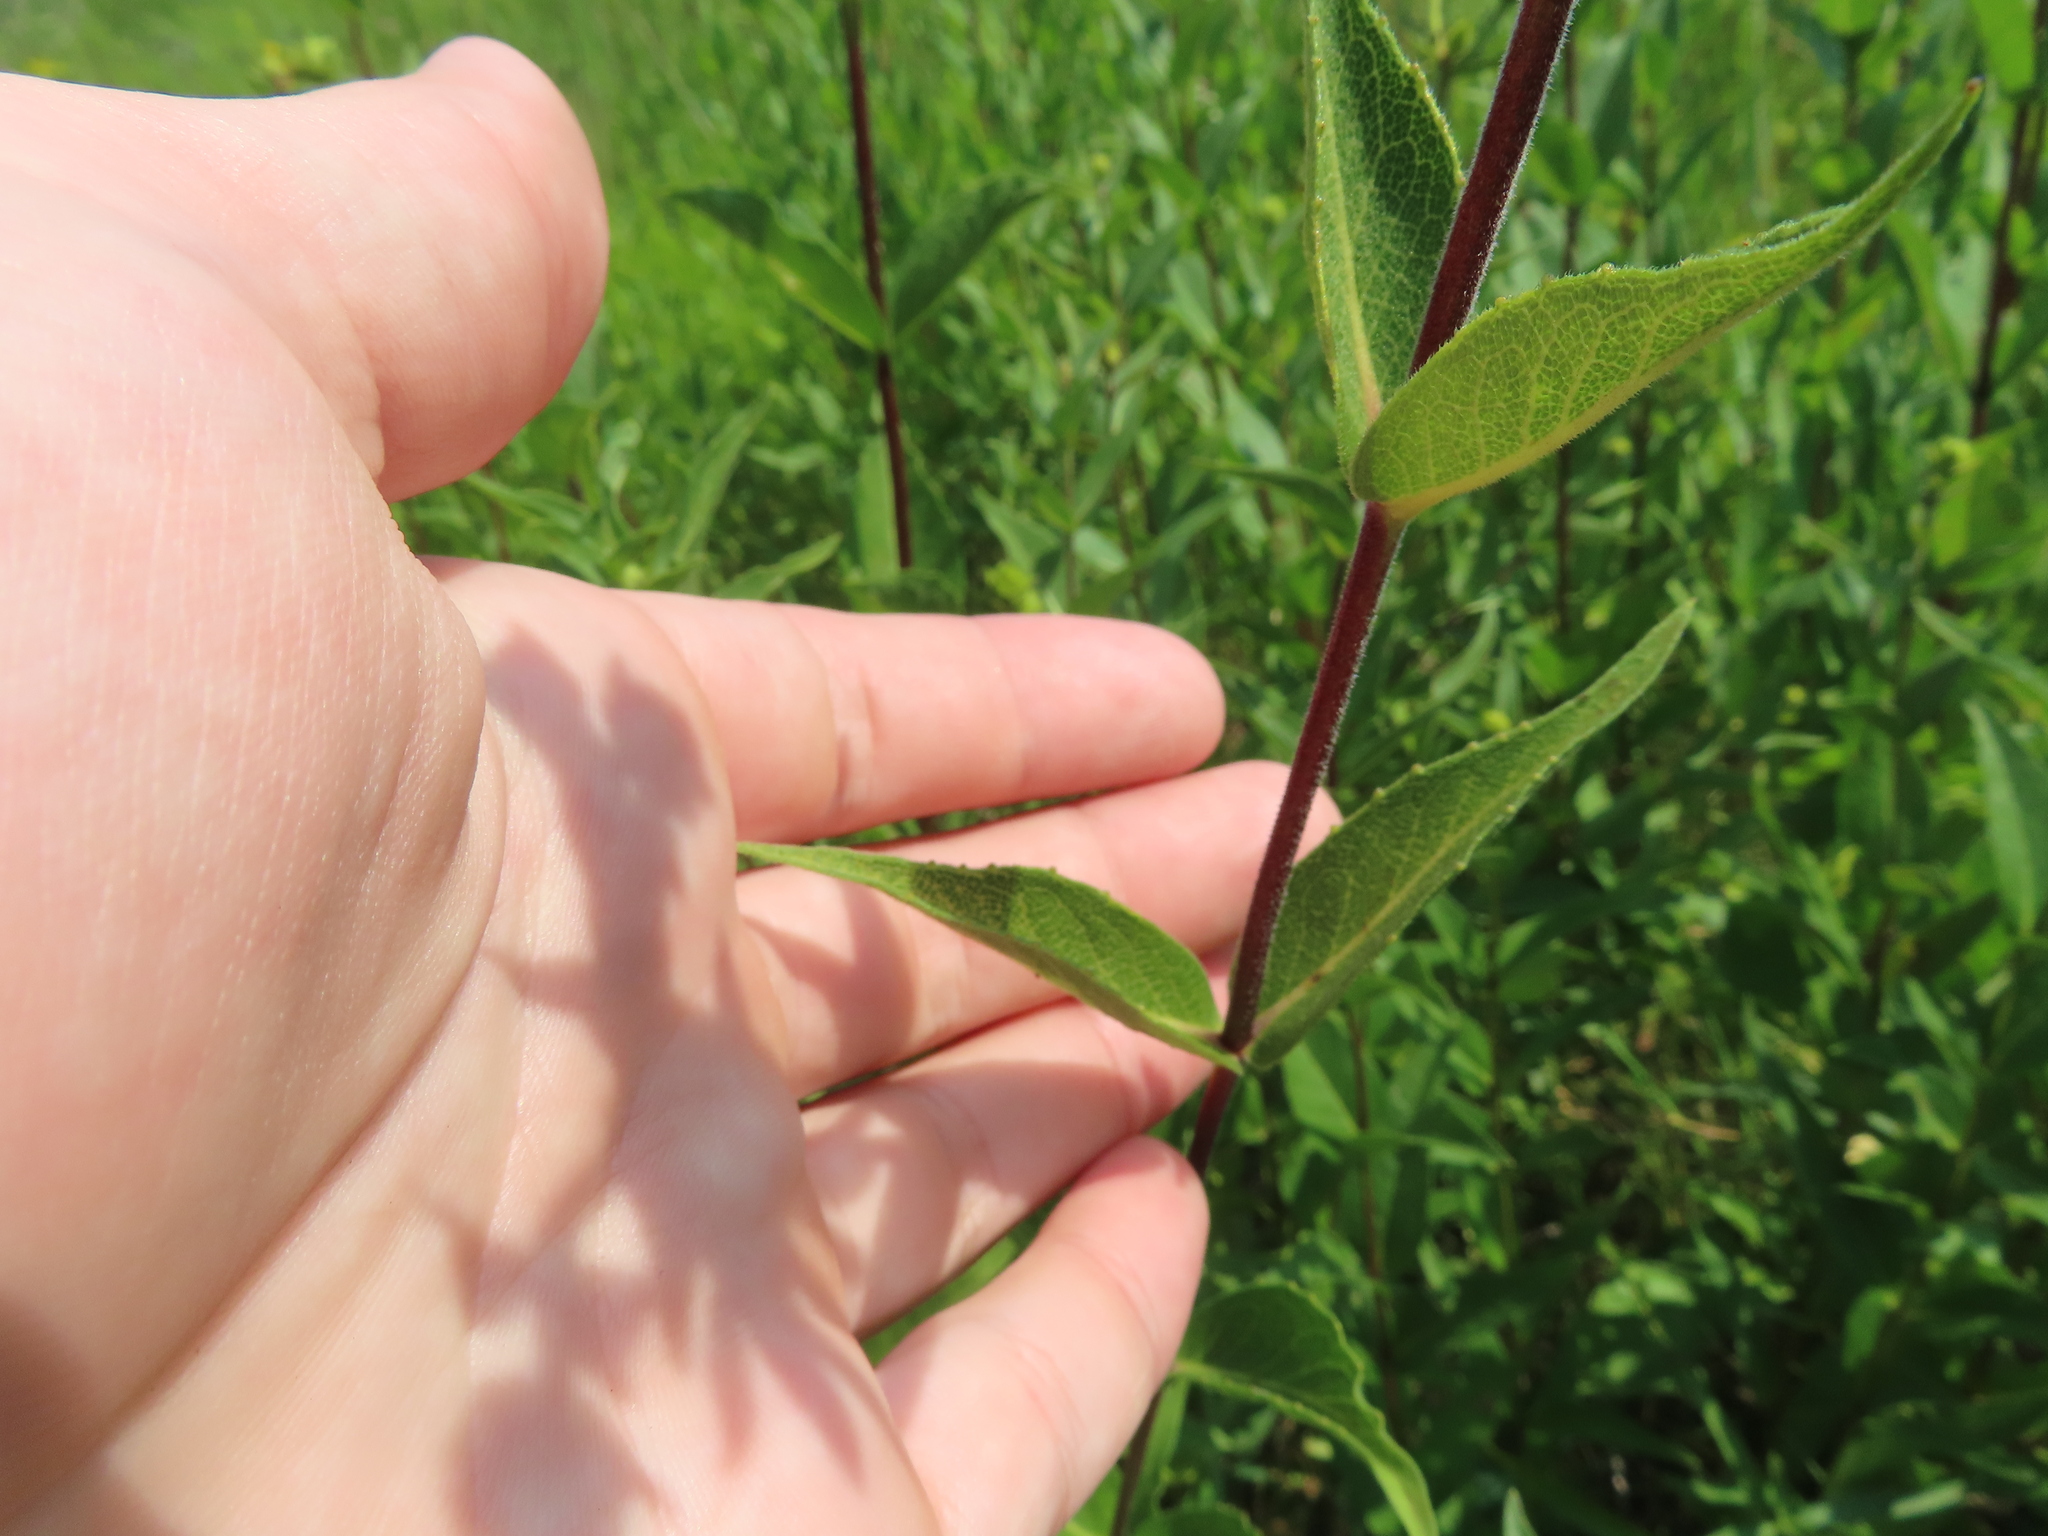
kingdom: Plantae
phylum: Tracheophyta
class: Magnoliopsida
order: Asterales
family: Asteraceae
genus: Silphium
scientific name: Silphium integrifolium
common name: Whole-leaf rosinweed
